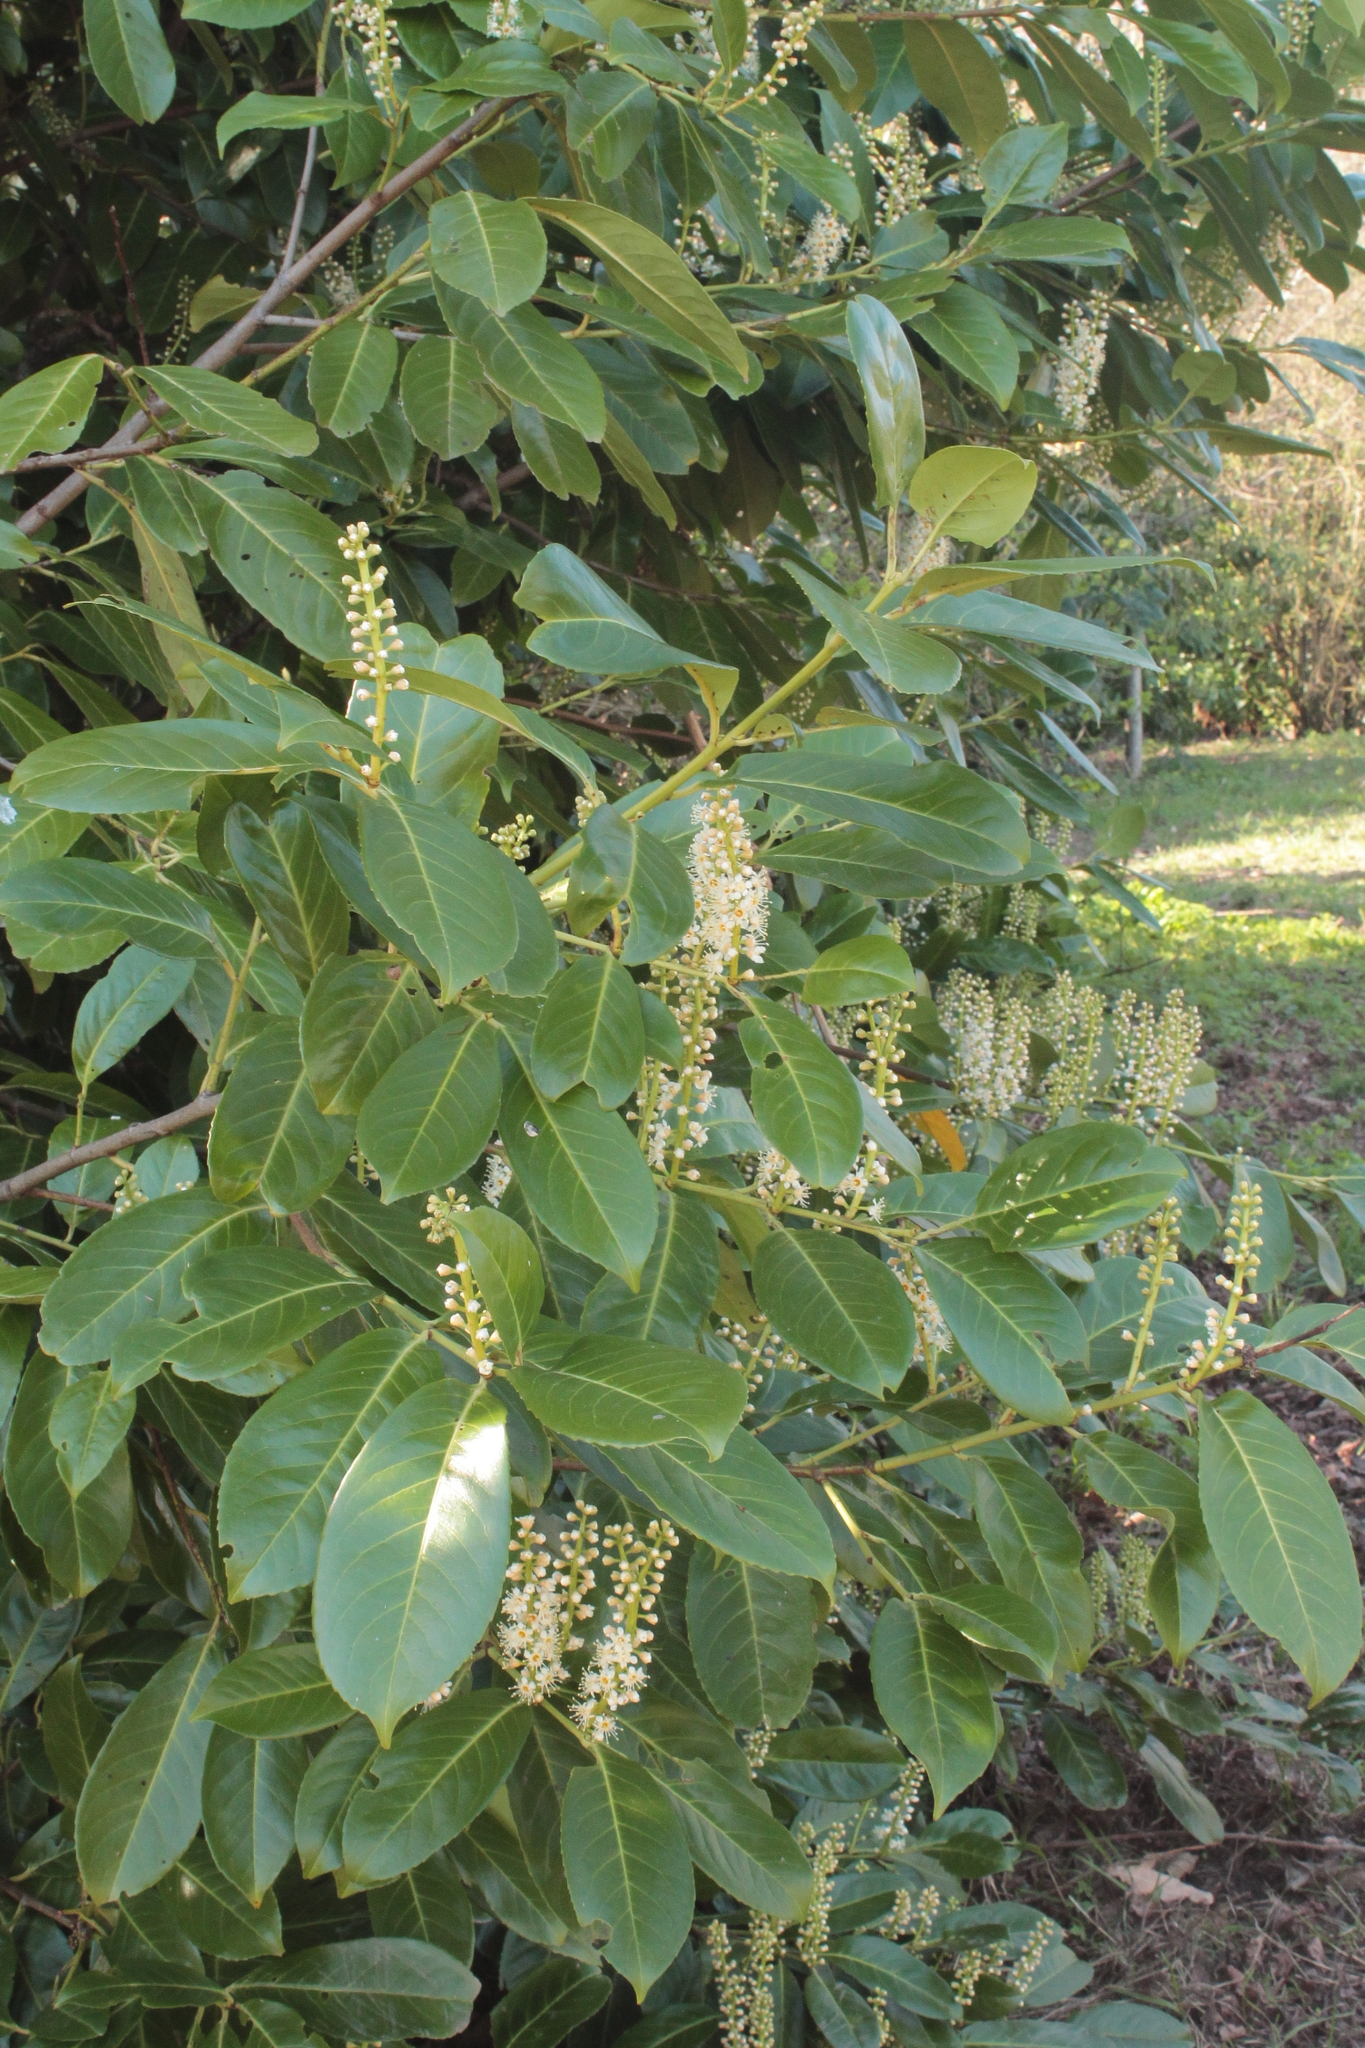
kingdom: Plantae
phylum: Tracheophyta
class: Magnoliopsida
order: Rosales
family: Rosaceae
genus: Prunus
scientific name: Prunus laurocerasus
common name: Cherry laurel
